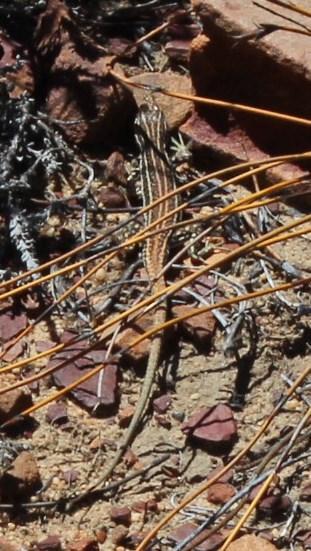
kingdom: Animalia
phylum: Chordata
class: Squamata
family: Lacertidae
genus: Pedioplanis
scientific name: Pedioplanis namaquensis
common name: Namaqua sand lizard
